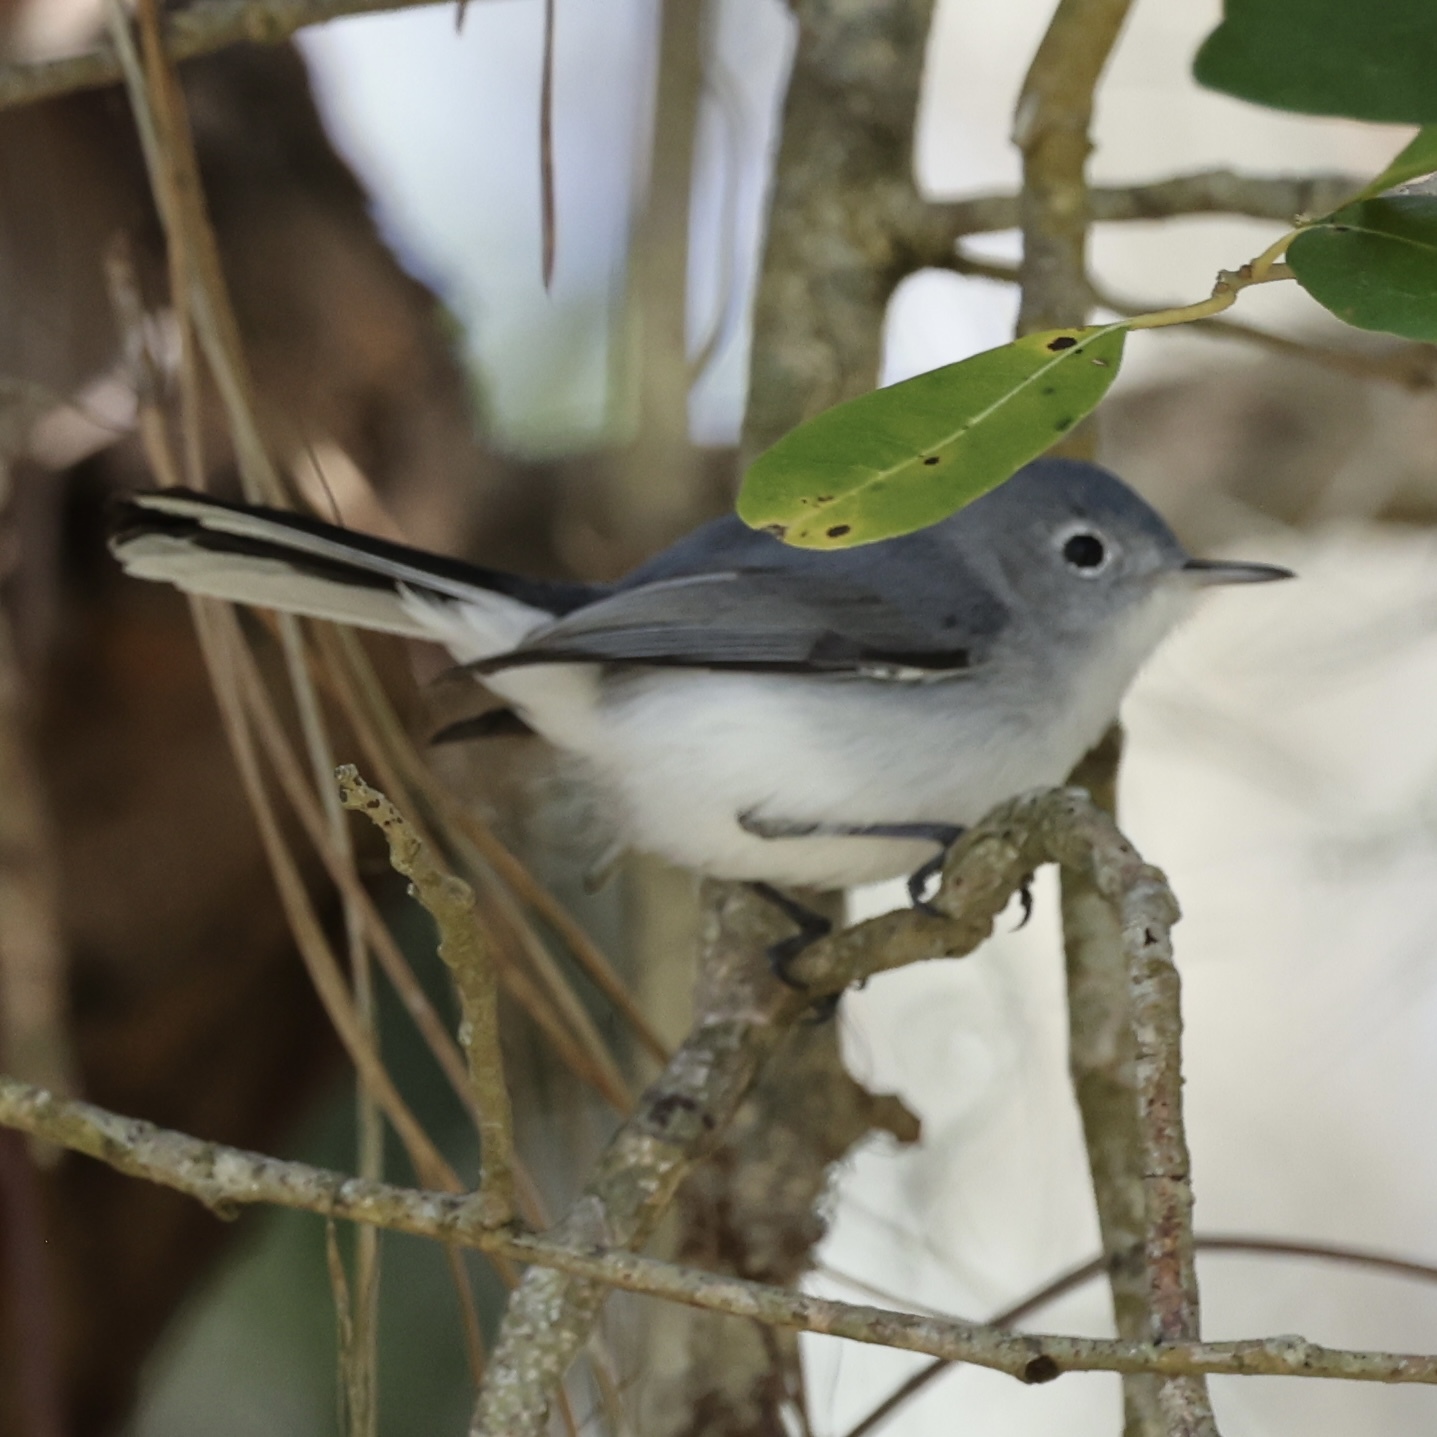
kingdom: Animalia
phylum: Chordata
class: Aves
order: Passeriformes
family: Polioptilidae
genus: Polioptila
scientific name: Polioptila caerulea
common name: Blue-gray gnatcatcher
